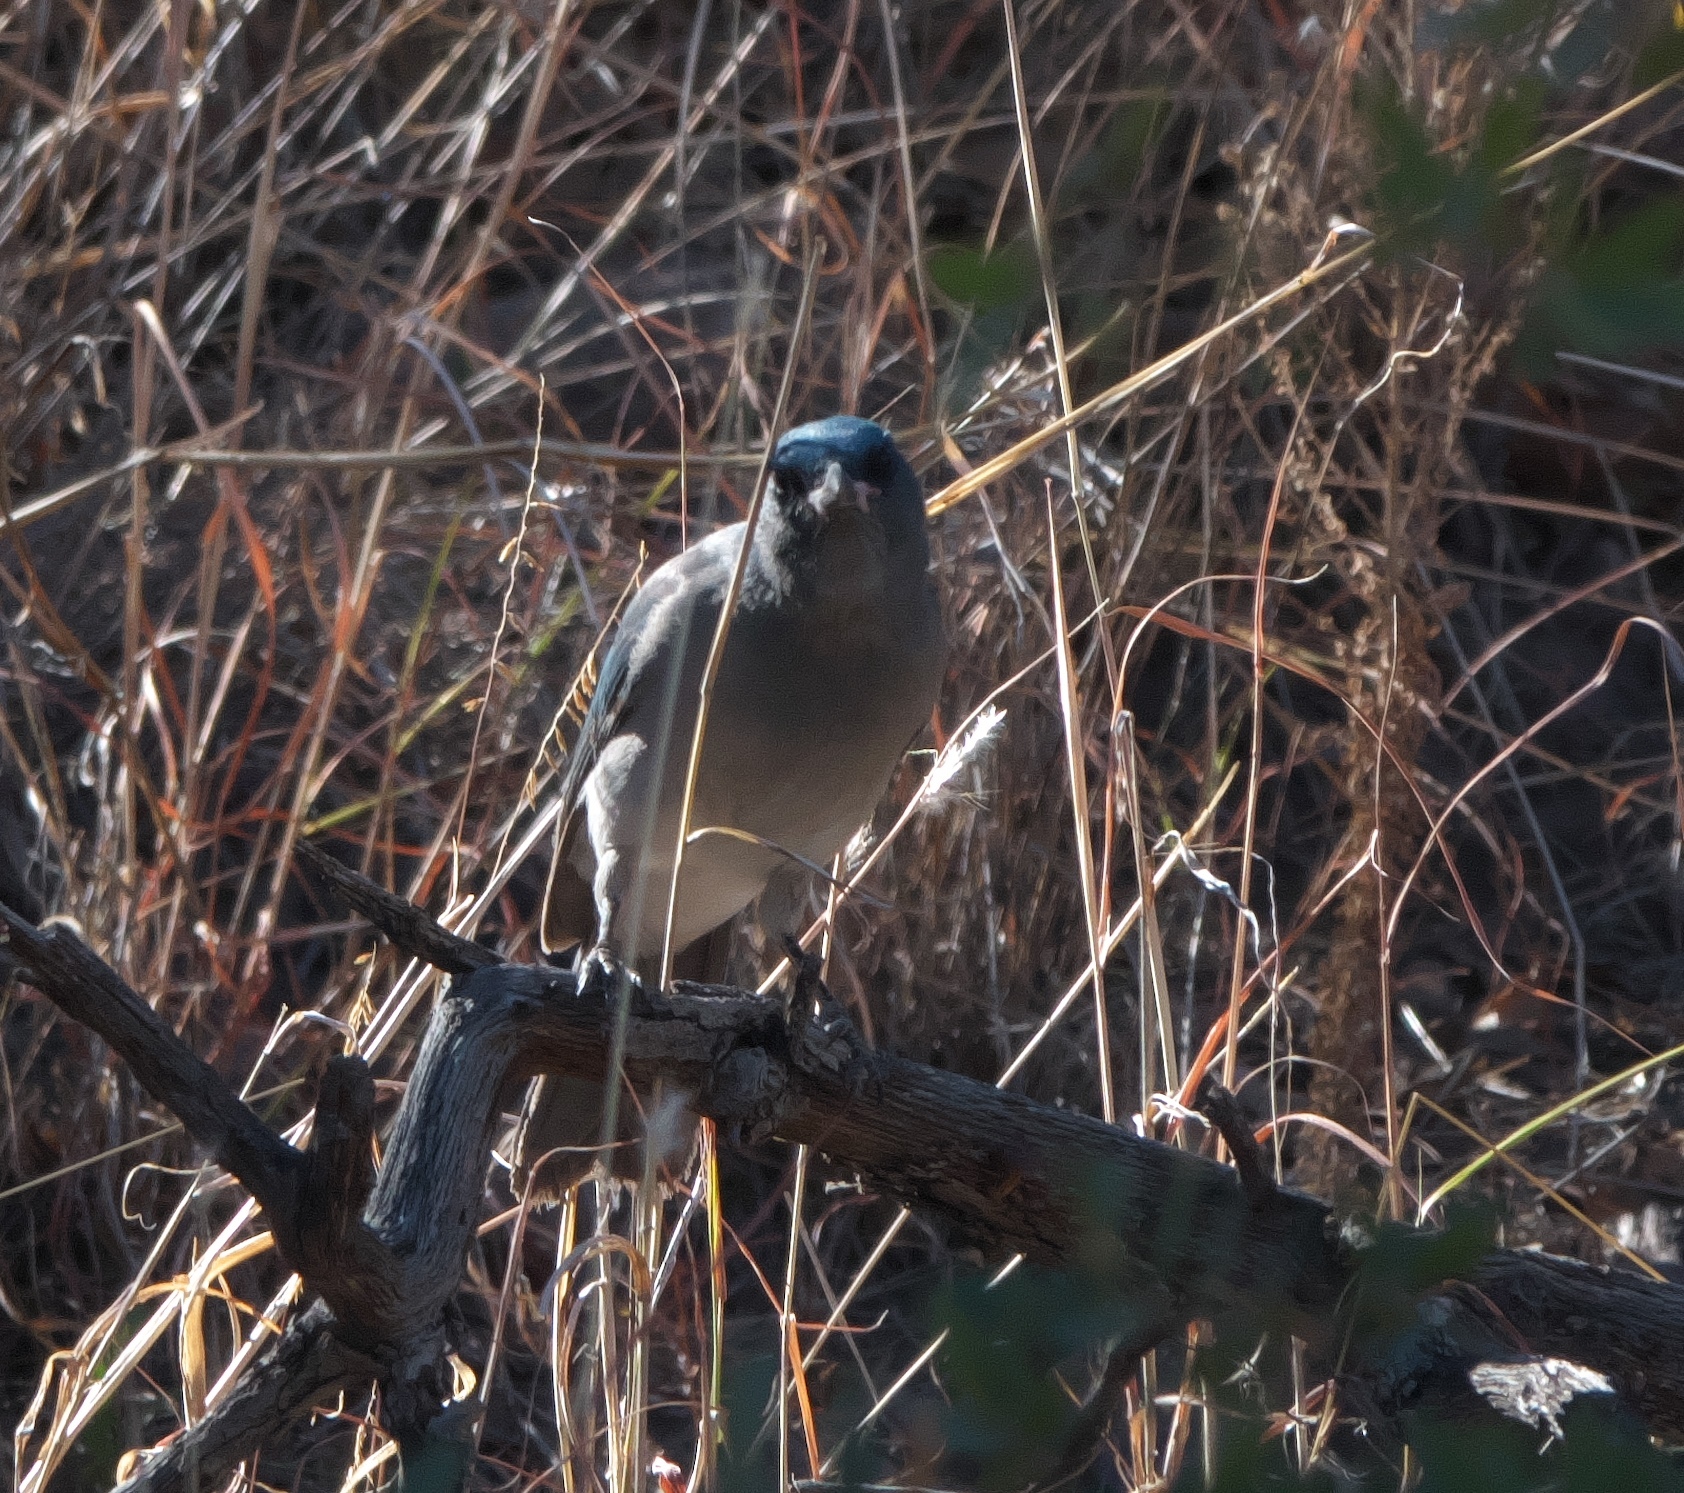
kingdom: Animalia
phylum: Chordata
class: Aves
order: Passeriformes
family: Corvidae
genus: Aphelocoma
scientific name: Aphelocoma wollweberi
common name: Mexican jay
